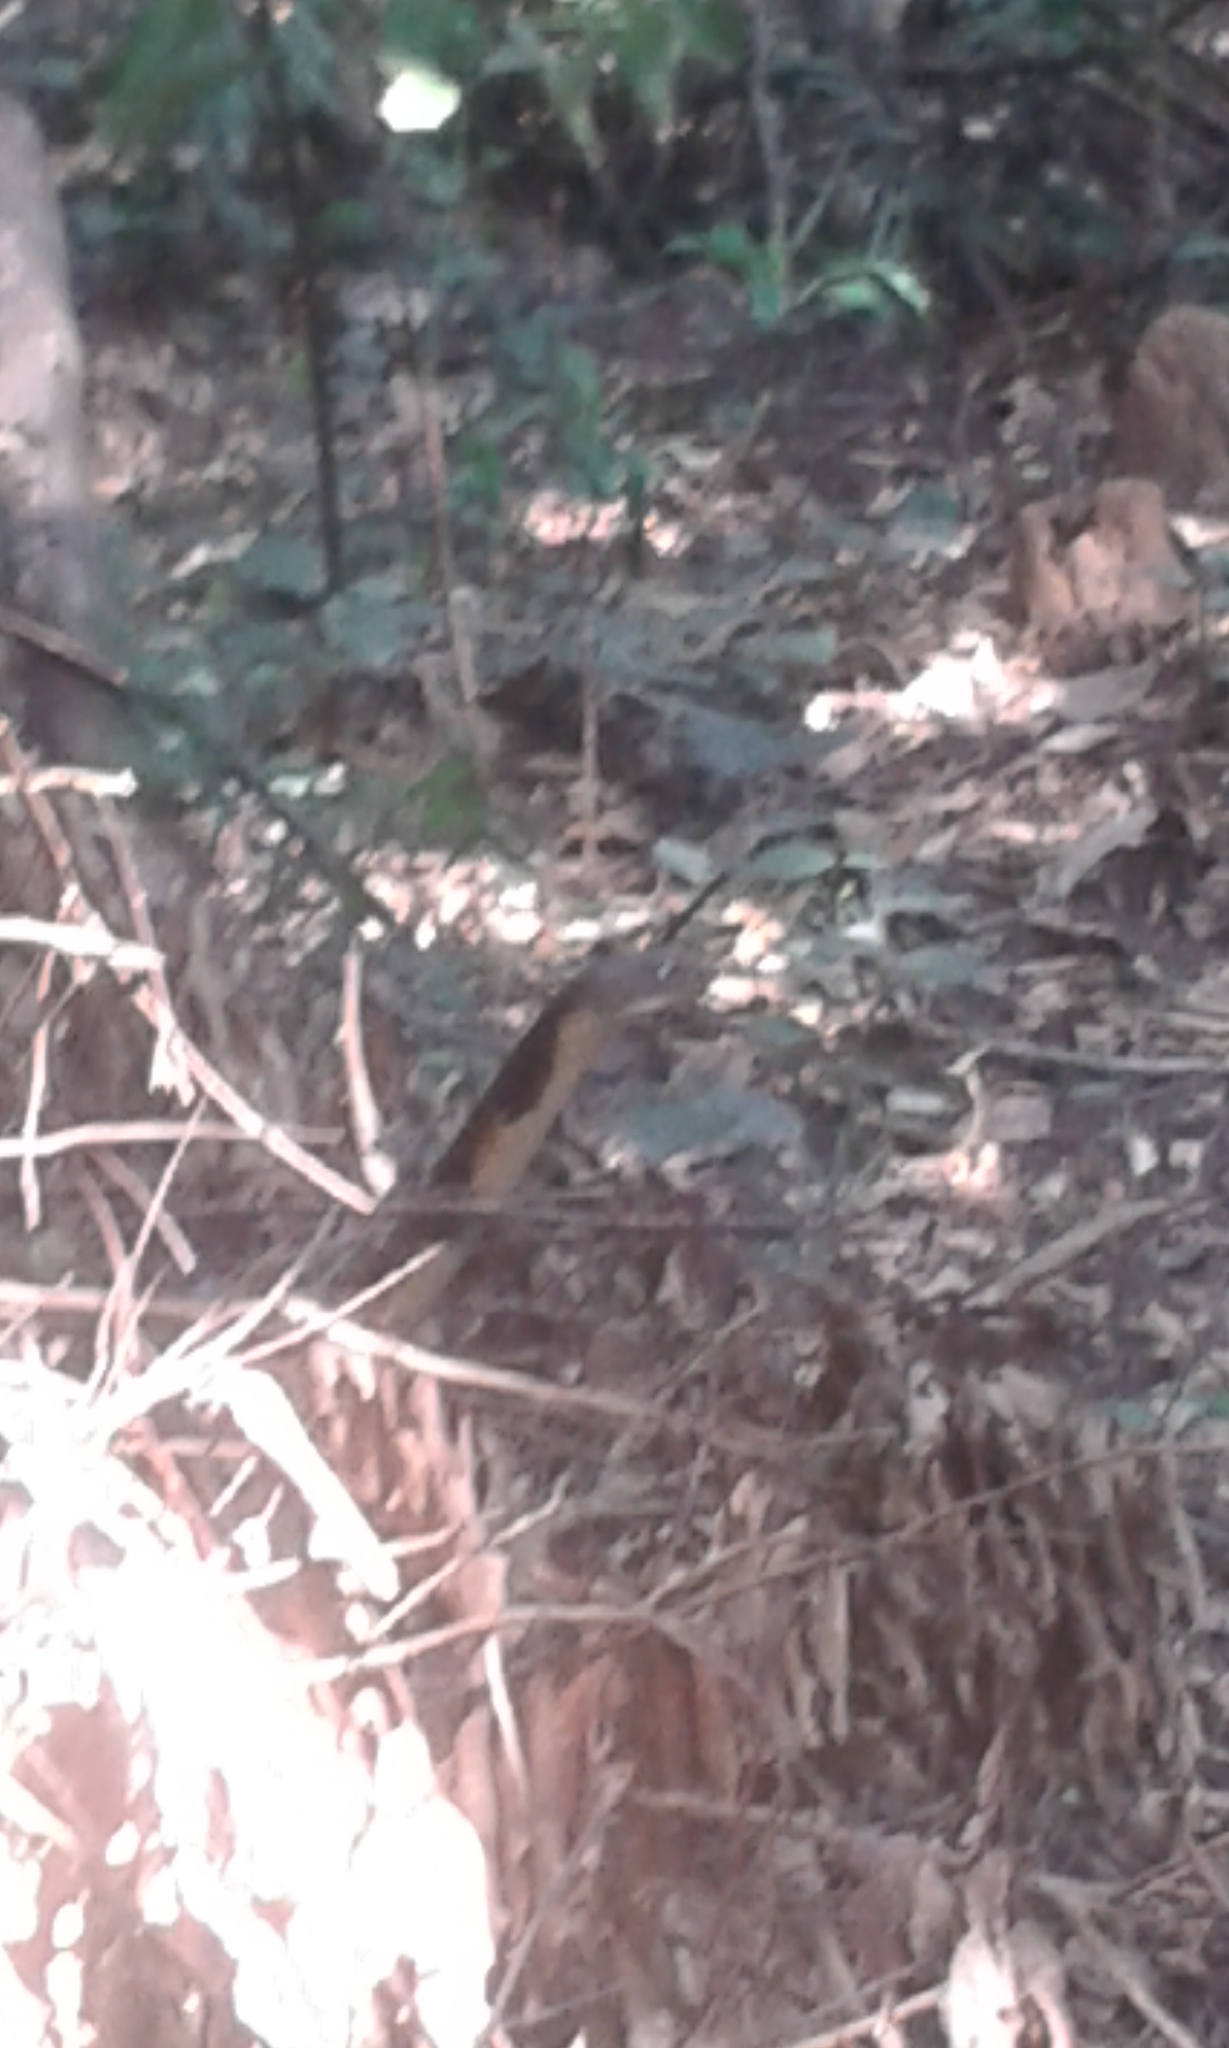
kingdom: Animalia
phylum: Chordata
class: Squamata
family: Elapidae
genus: Ophiophagus
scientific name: Ophiophagus hannah
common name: Hamadryad
